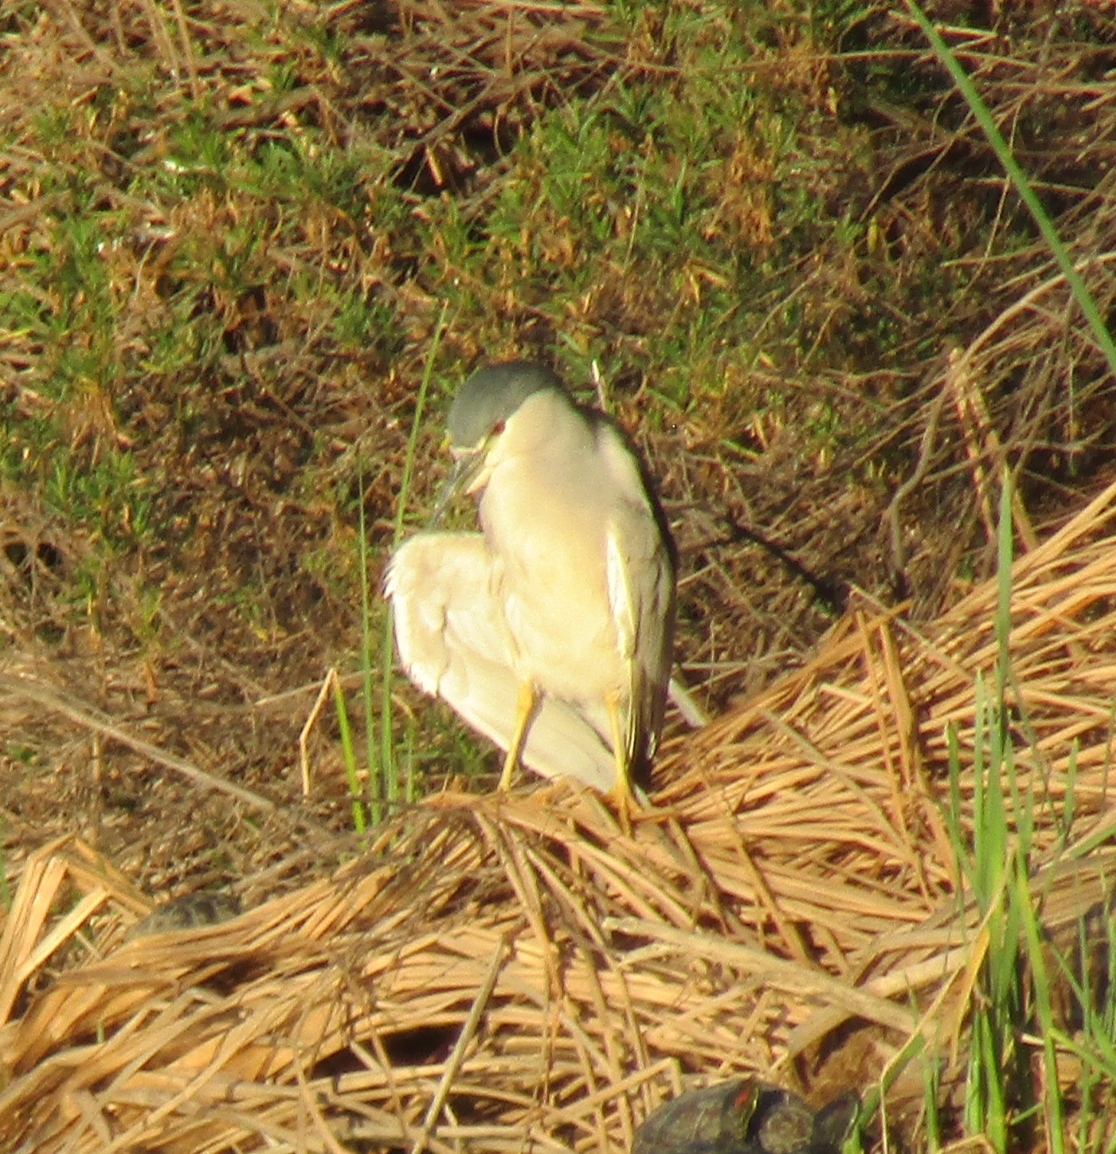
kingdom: Animalia
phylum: Chordata
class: Aves
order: Pelecaniformes
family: Ardeidae
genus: Nycticorax
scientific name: Nycticorax nycticorax
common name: Black-crowned night heron
